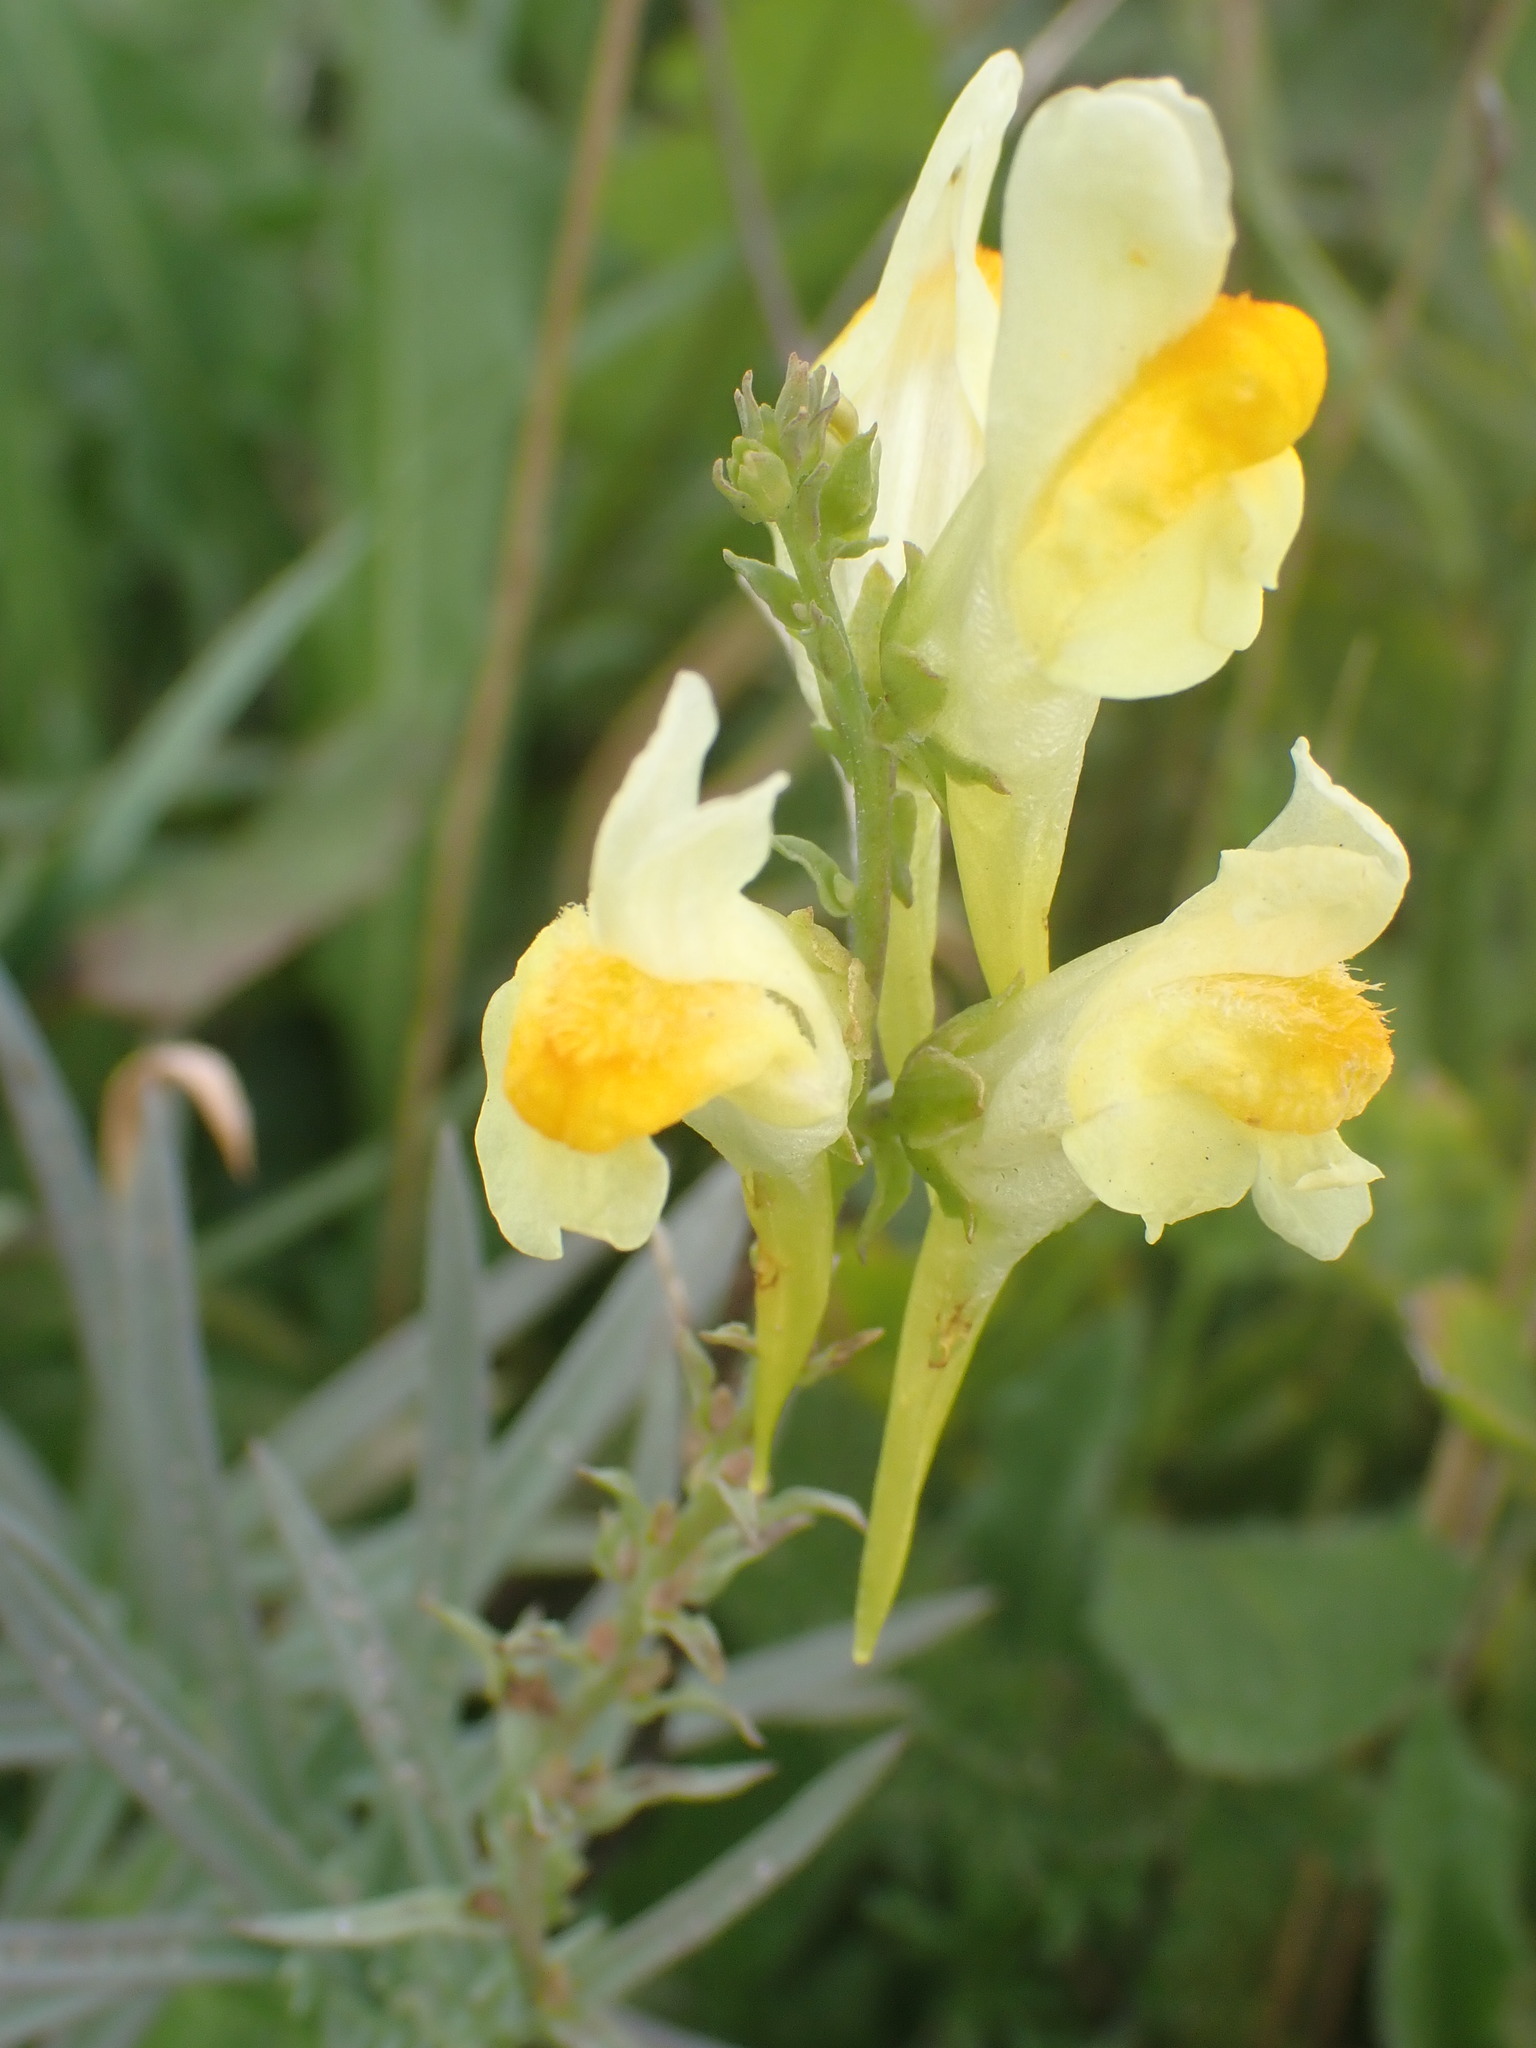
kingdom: Plantae
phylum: Tracheophyta
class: Magnoliopsida
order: Lamiales
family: Plantaginaceae
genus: Linaria
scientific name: Linaria vulgaris
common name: Butter and eggs
